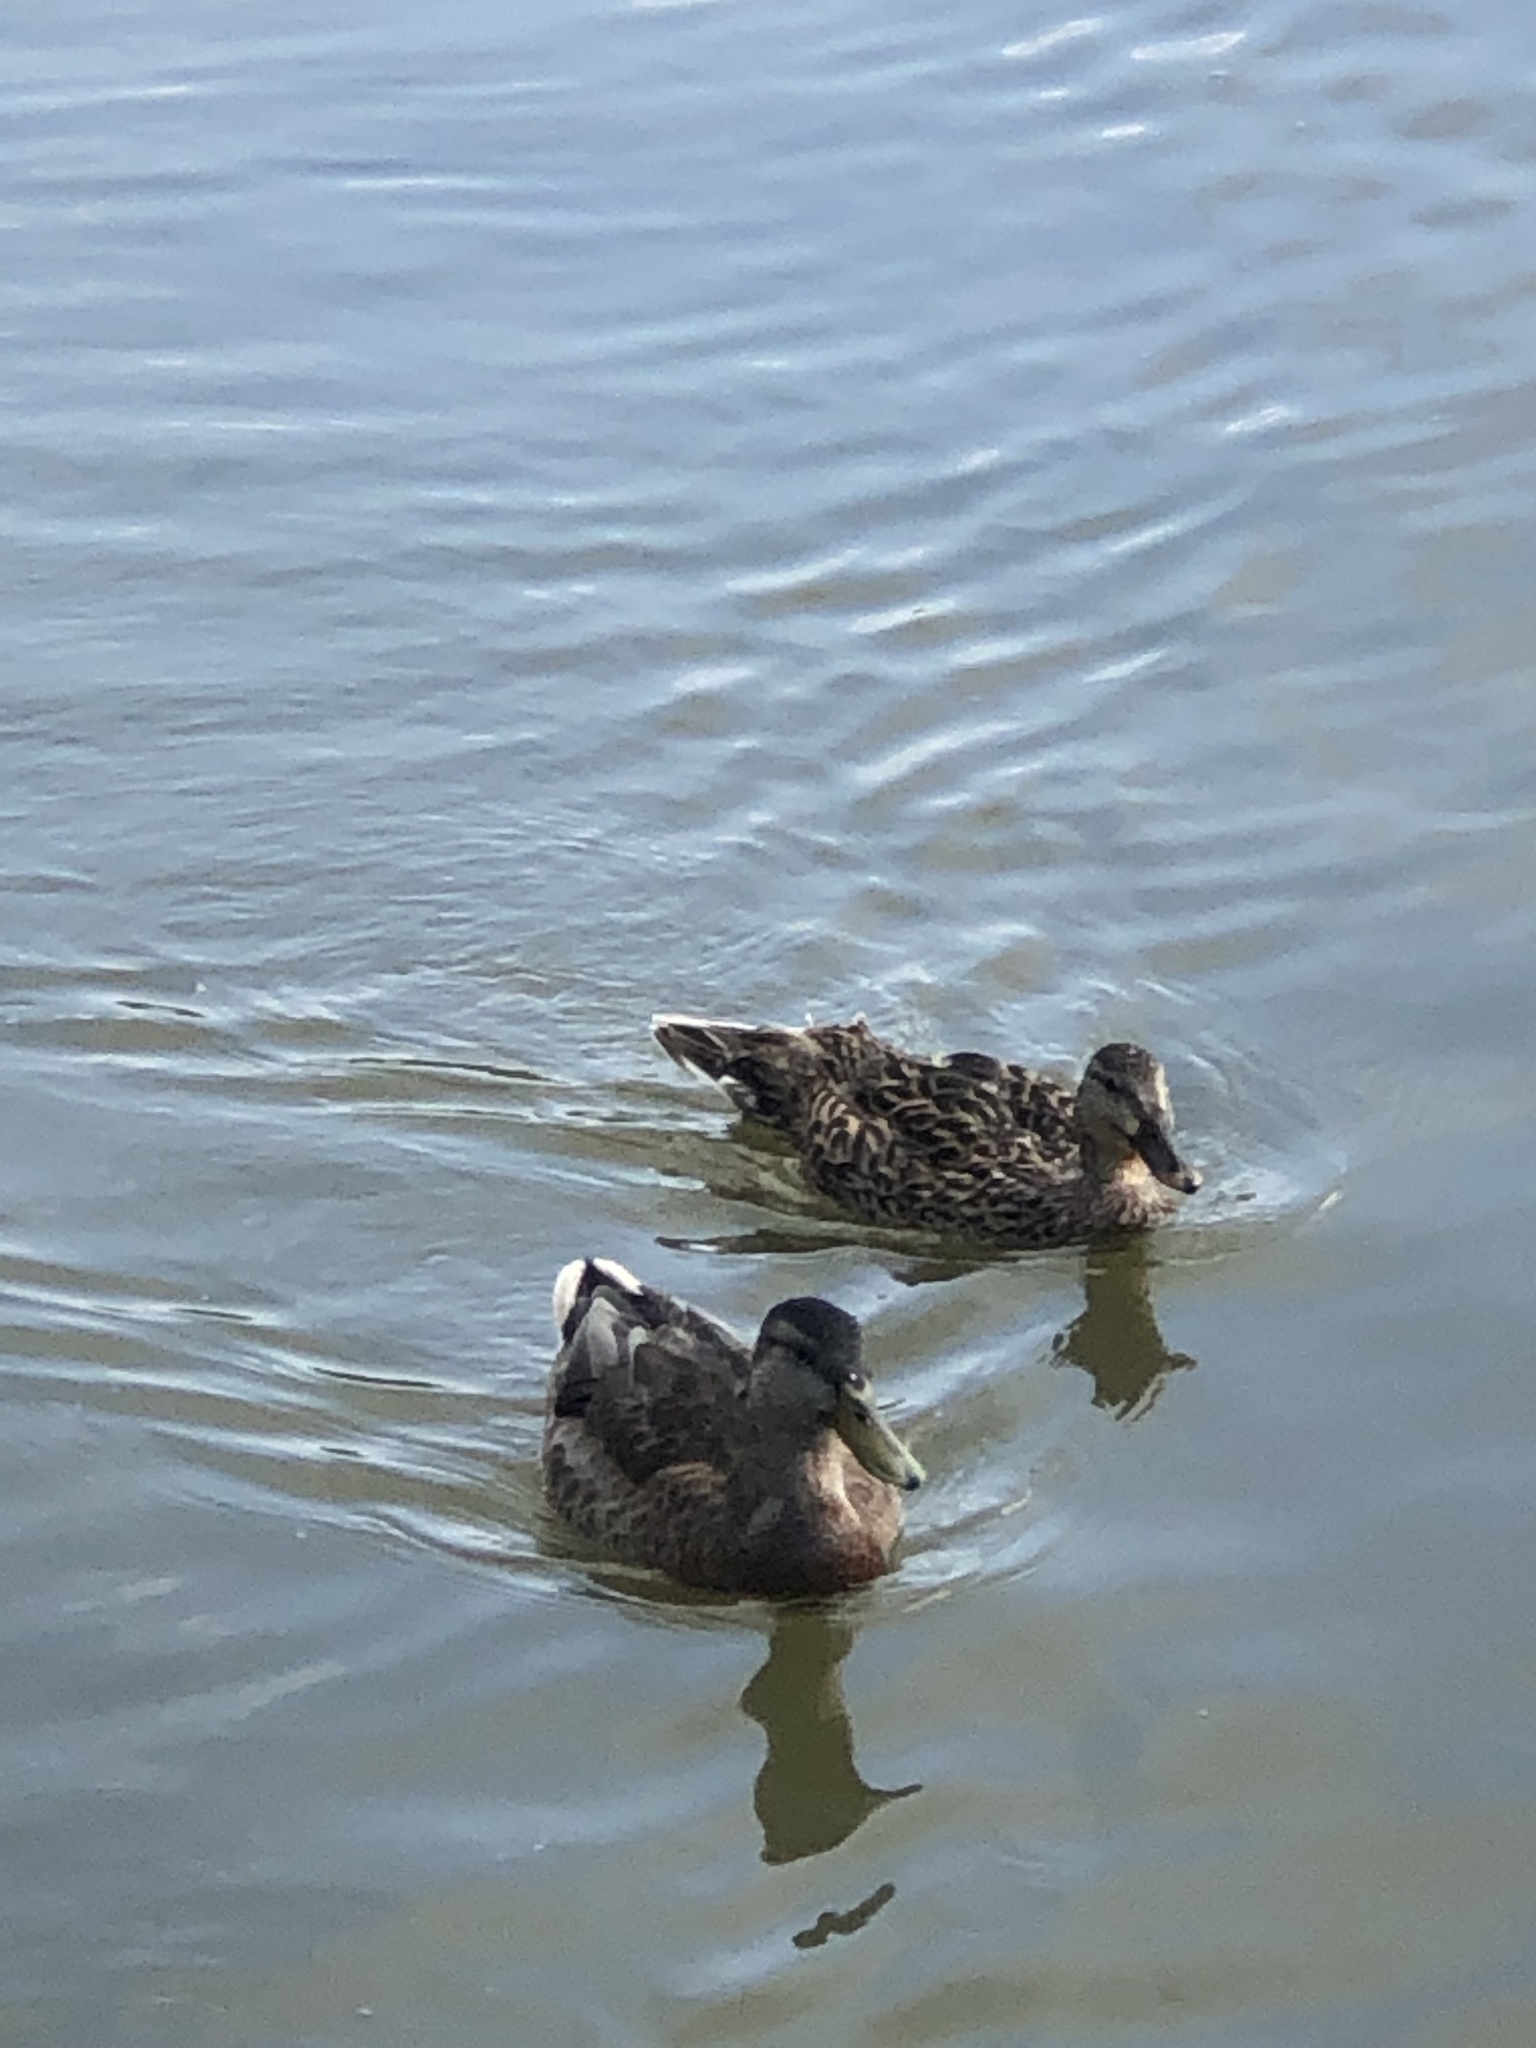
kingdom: Animalia
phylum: Chordata
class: Aves
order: Anseriformes
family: Anatidae
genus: Anas
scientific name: Anas platyrhynchos
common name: Mallard
